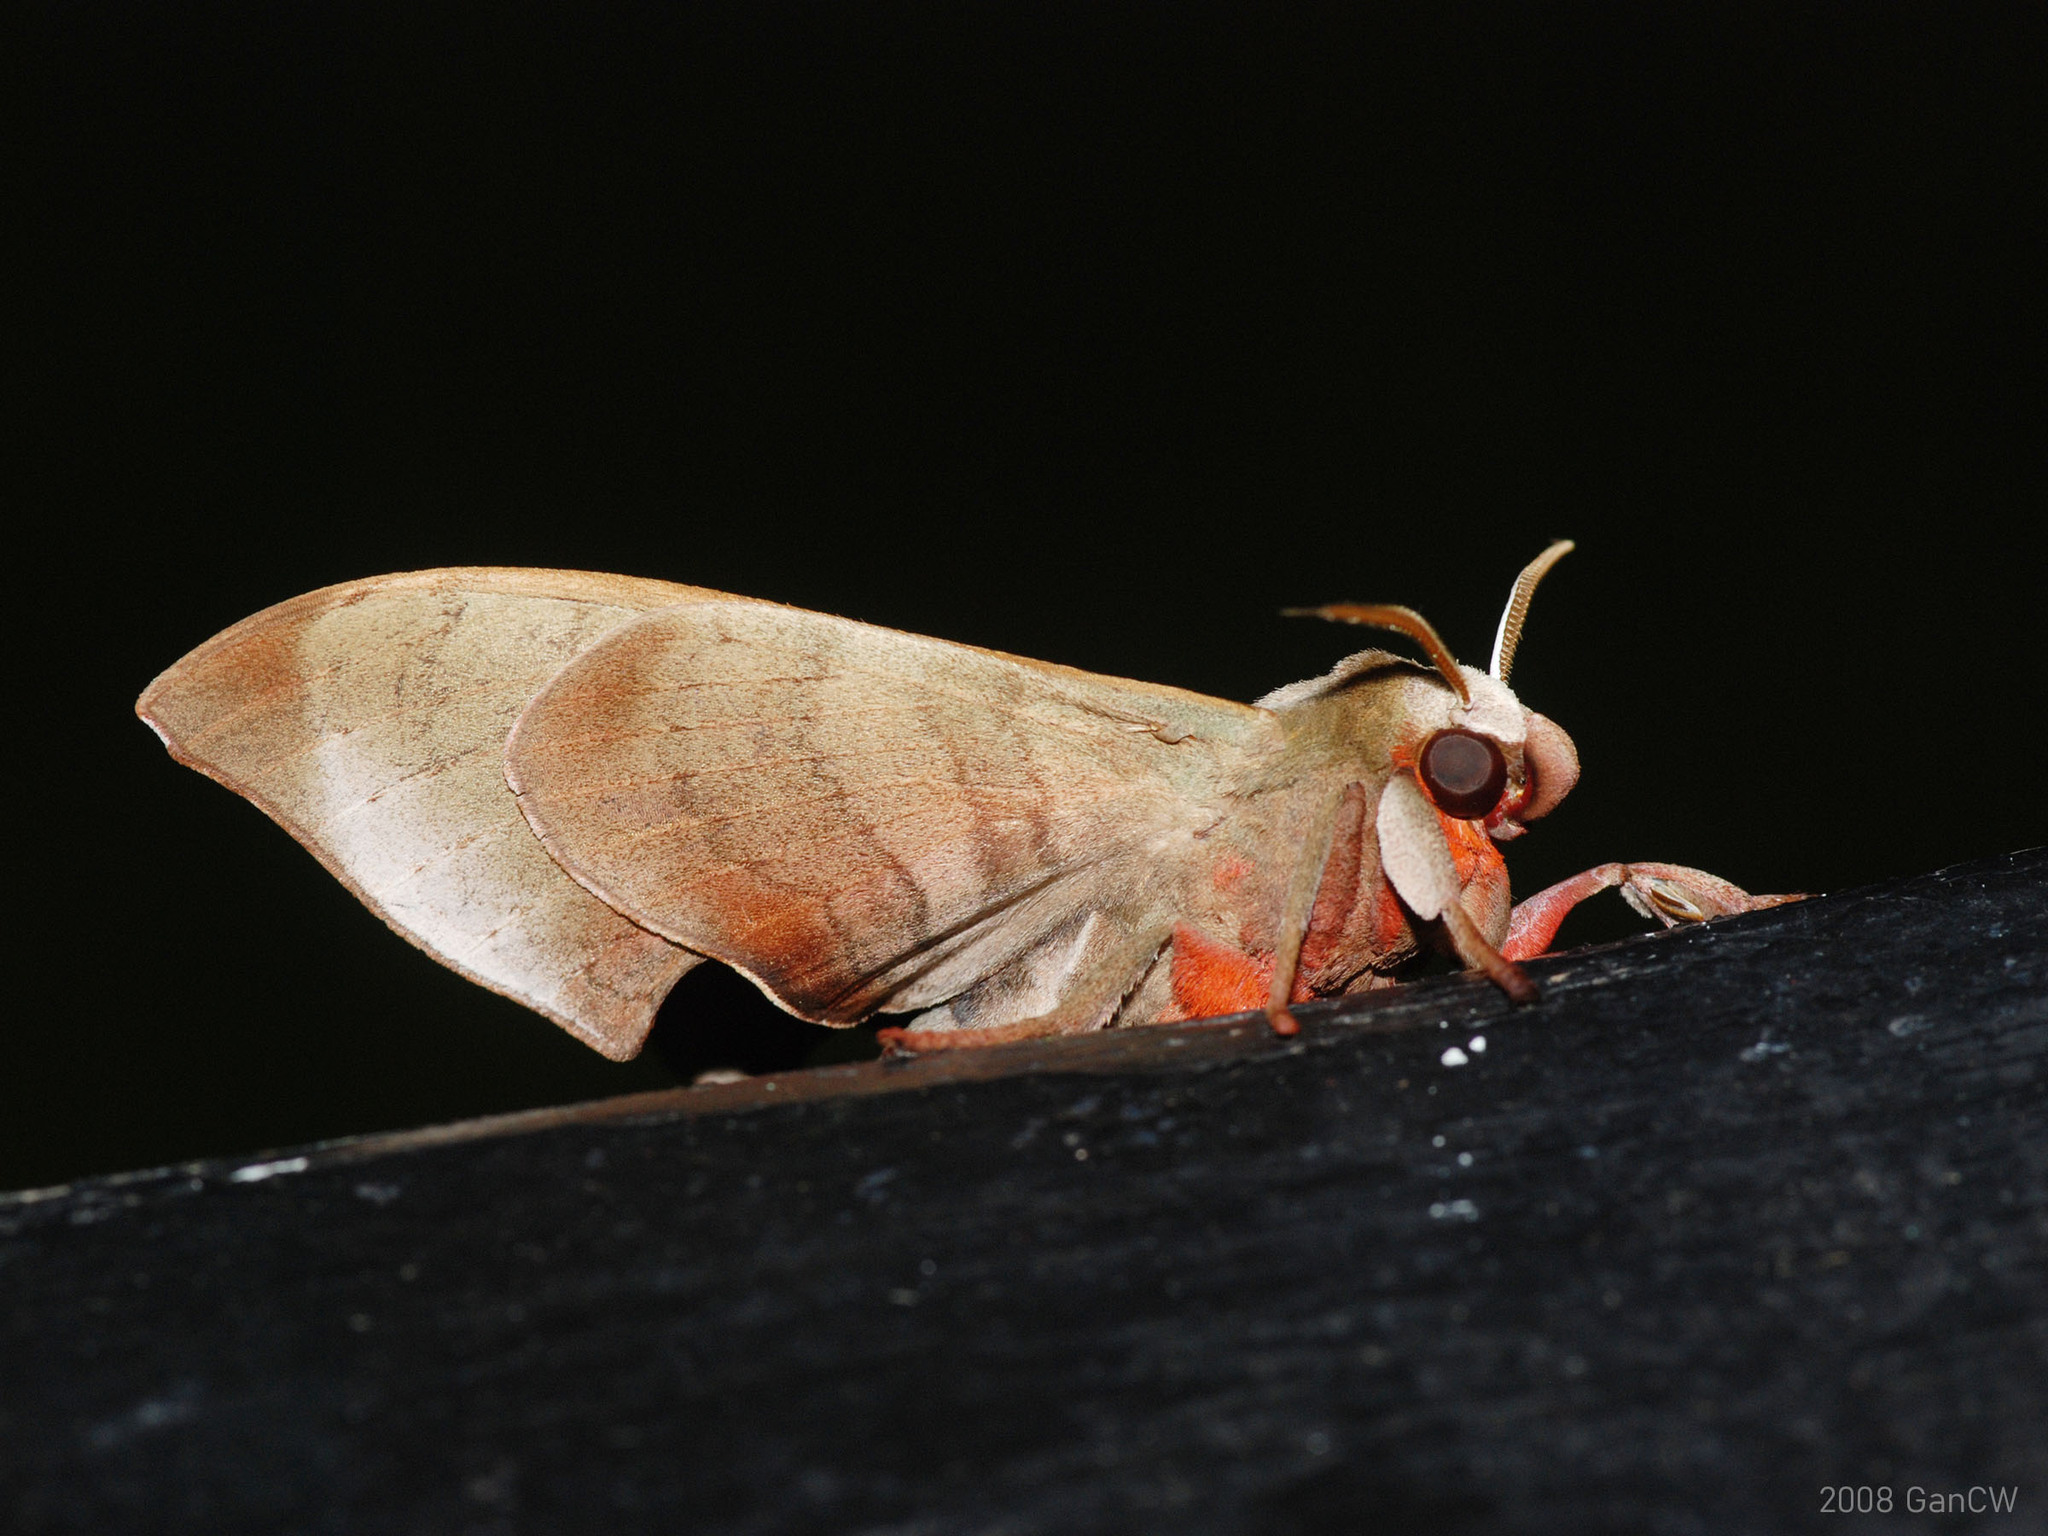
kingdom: Animalia
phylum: Arthropoda
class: Insecta
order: Lepidoptera
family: Sphingidae
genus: Daphnusa
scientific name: Daphnusa ocellaris
